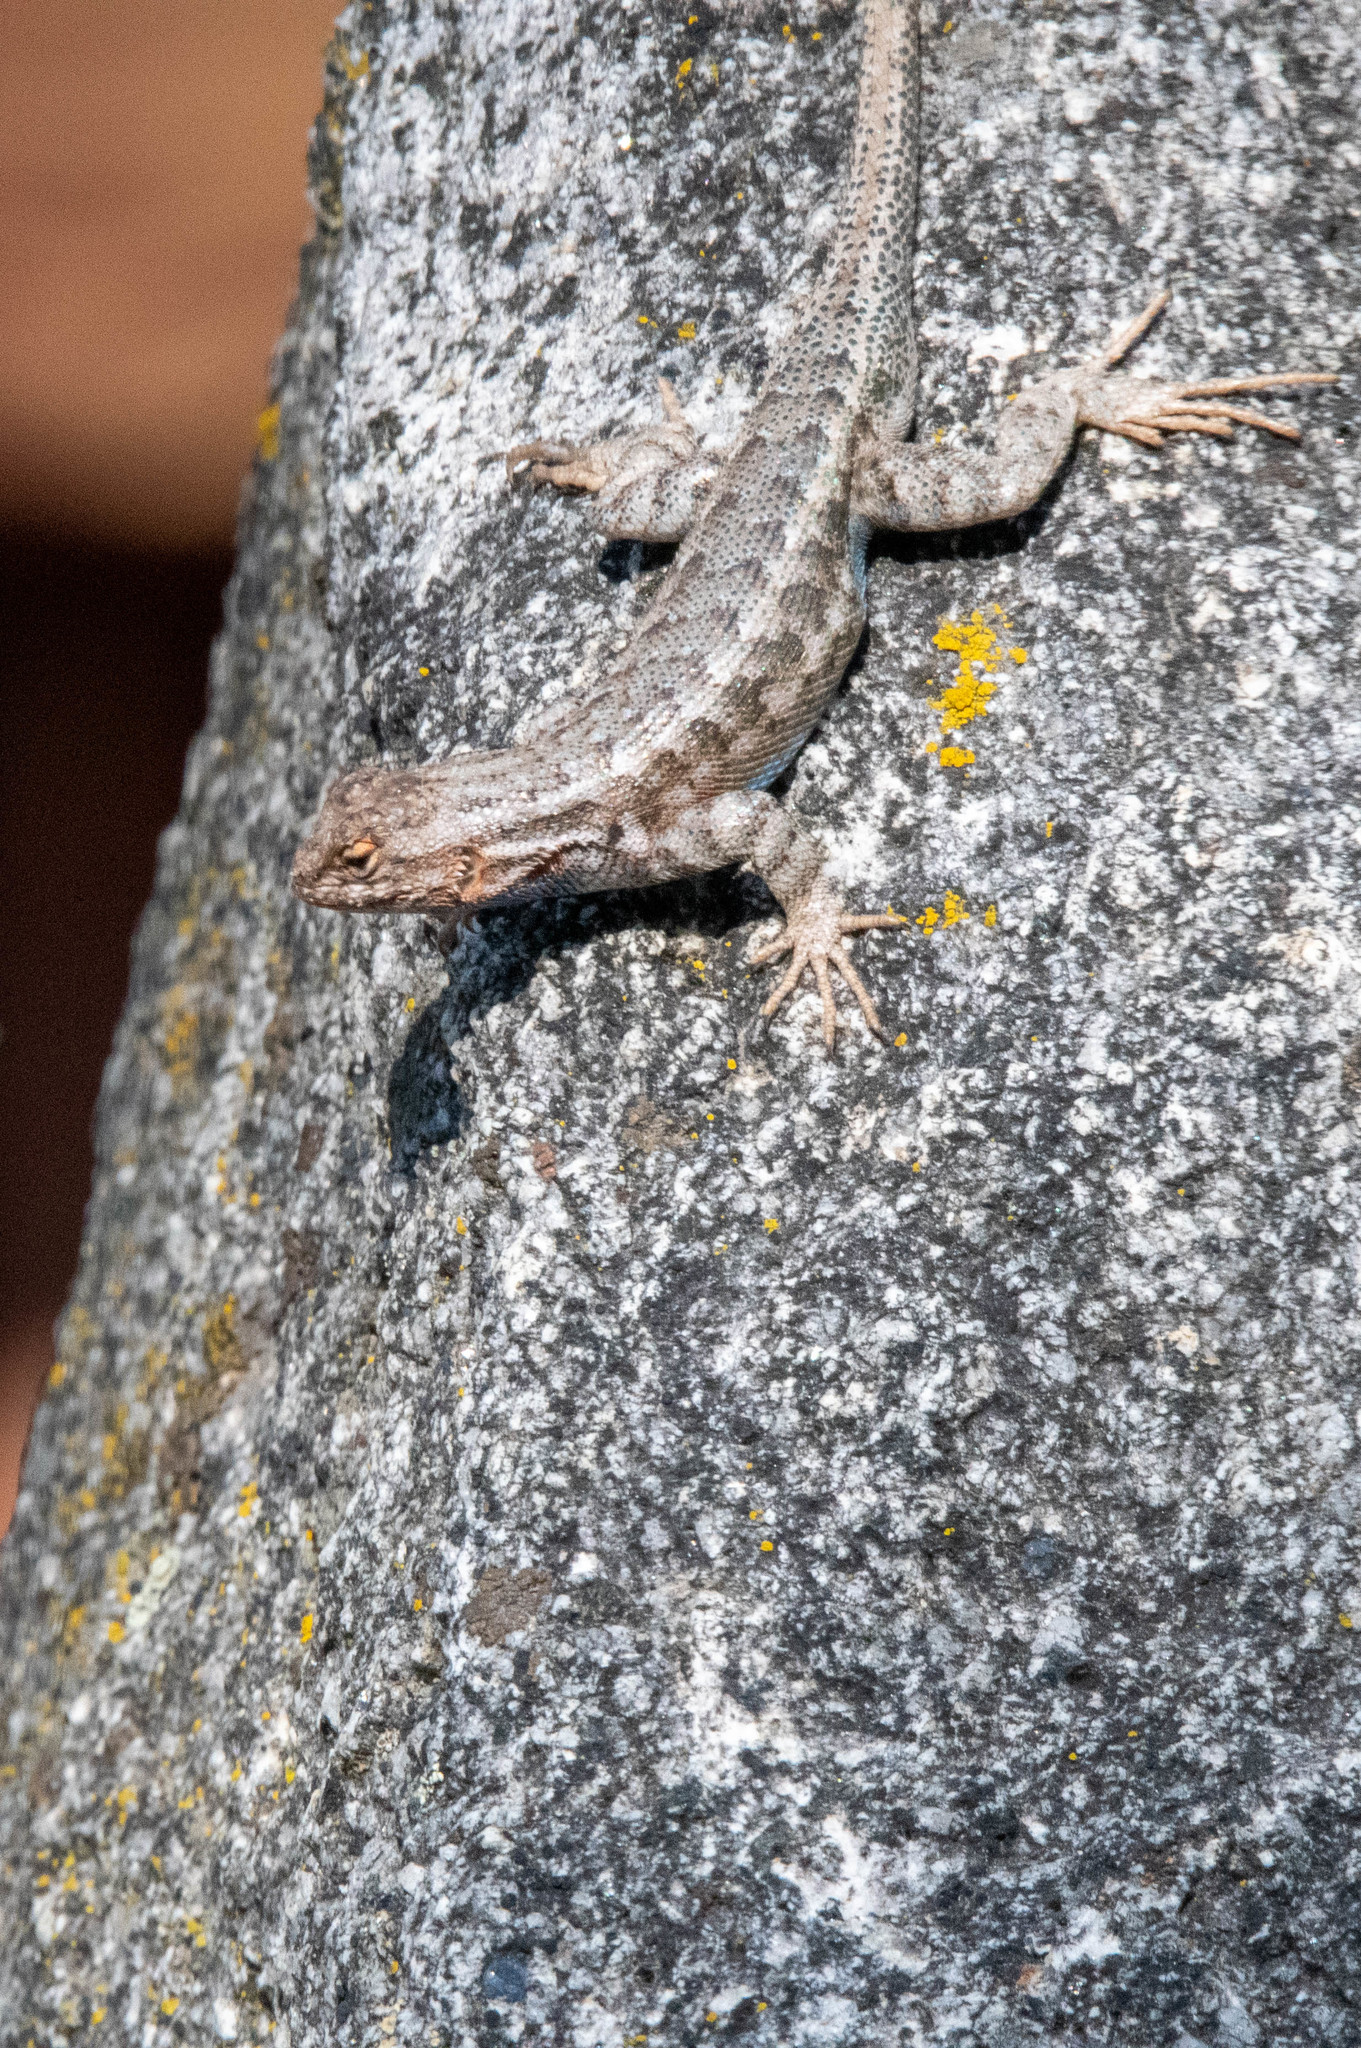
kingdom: Animalia
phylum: Chordata
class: Squamata
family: Phrynosomatidae
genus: Sceloporus
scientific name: Sceloporus graciosus
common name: Sagebrush lizard
